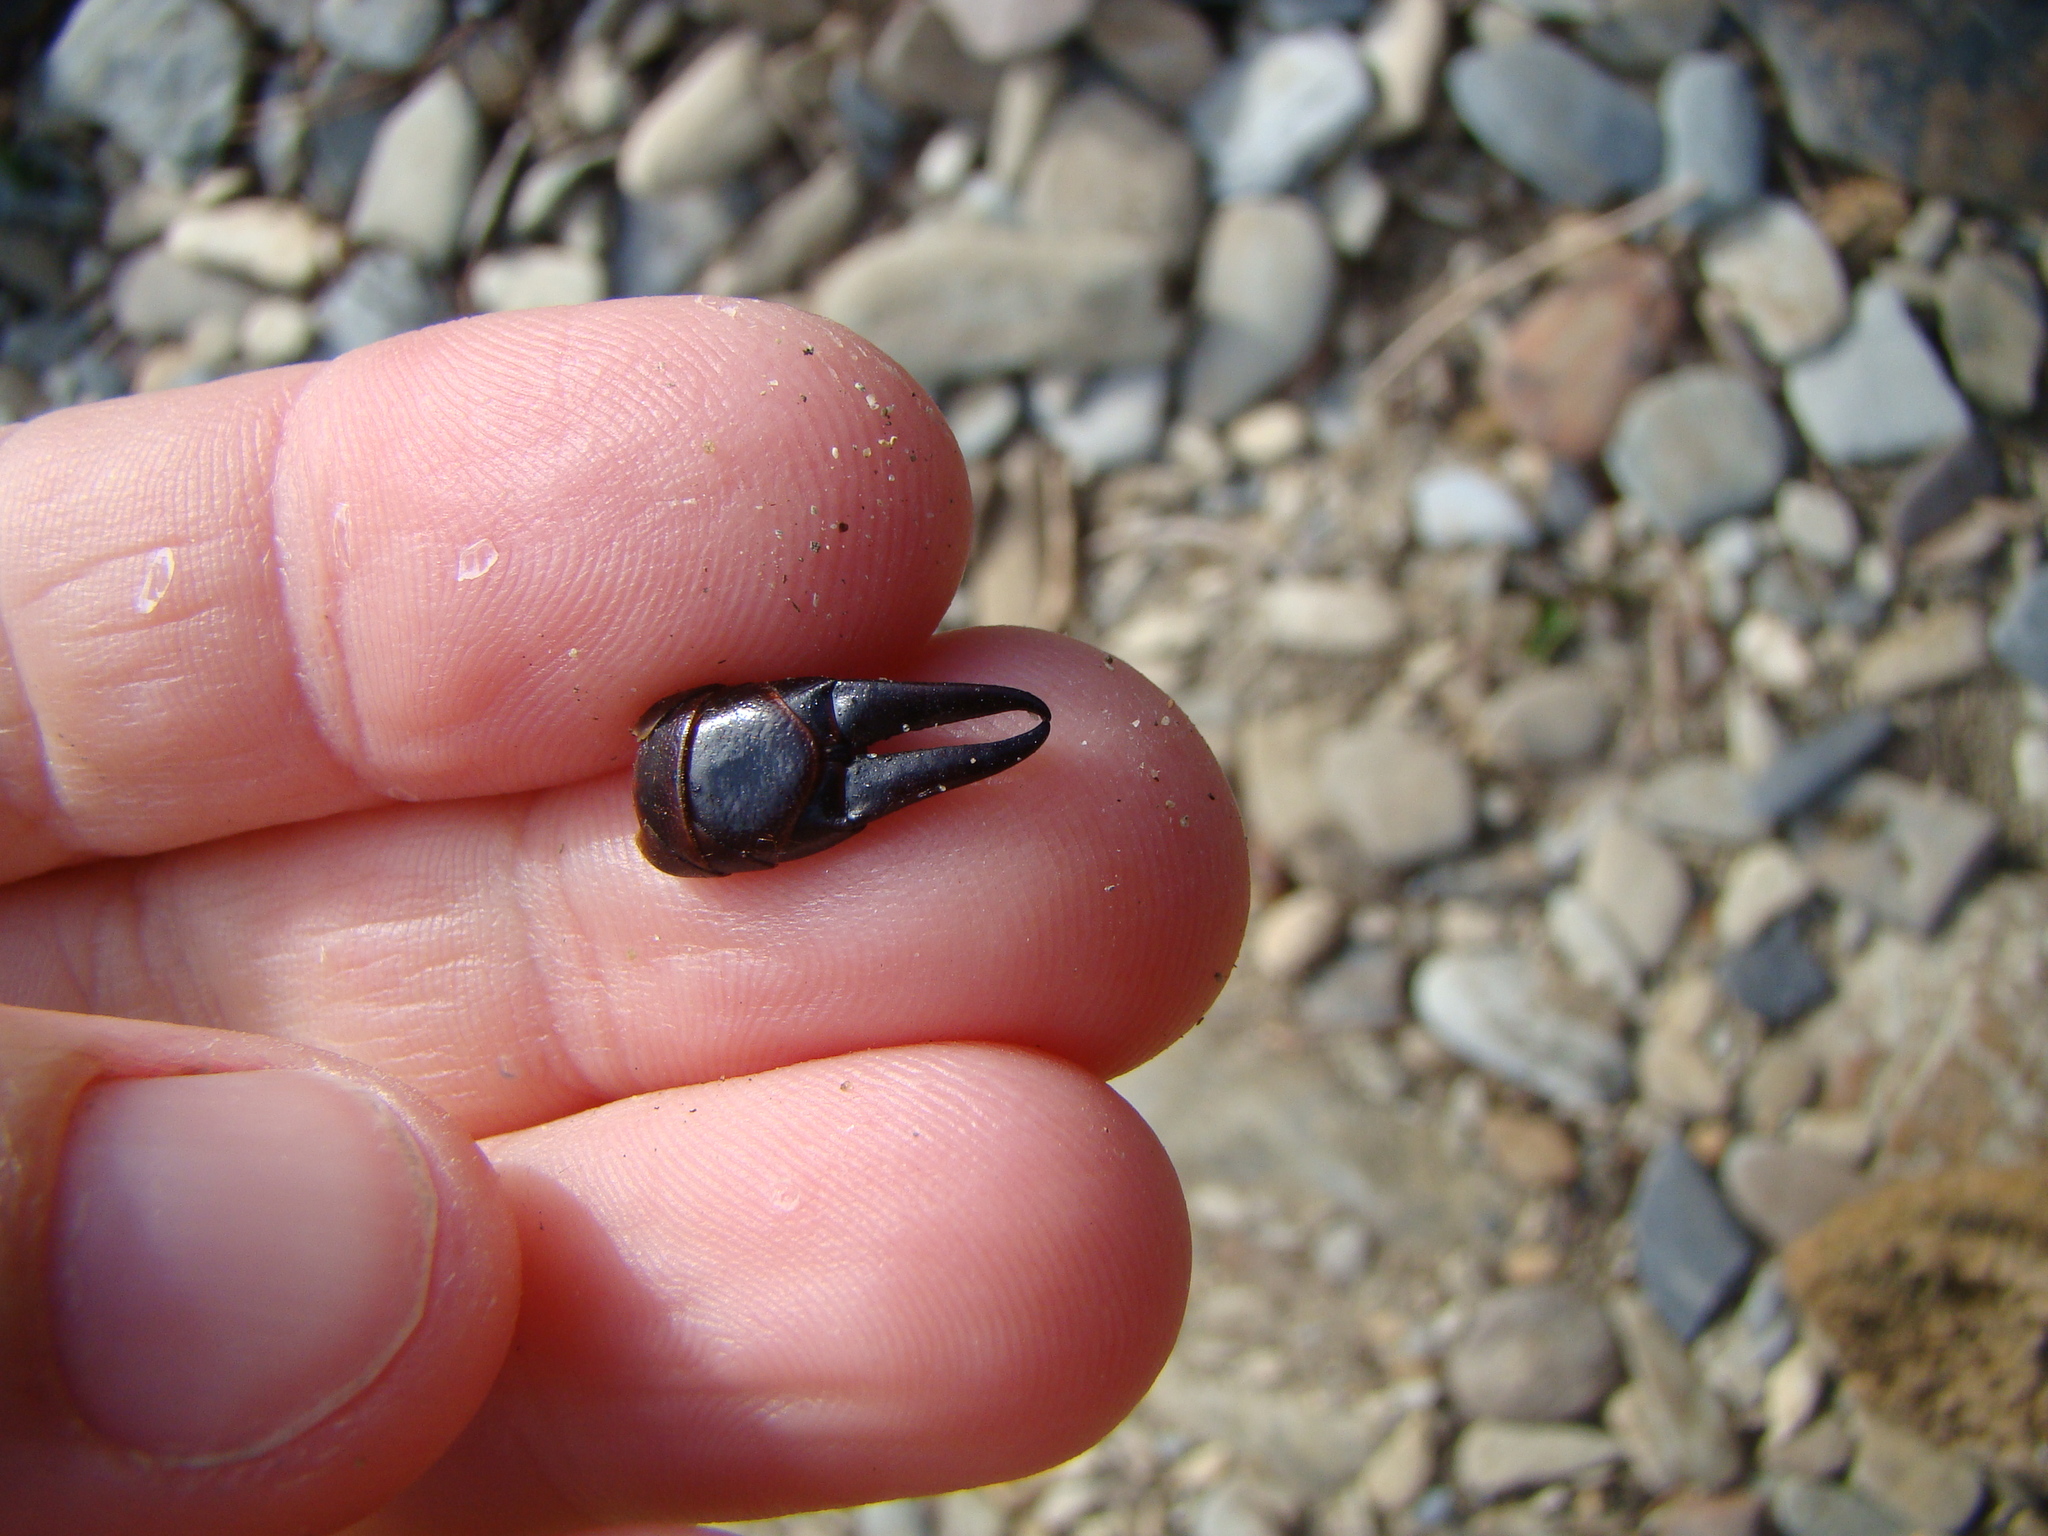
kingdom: Animalia
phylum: Arthropoda
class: Insecta
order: Dermaptera
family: Anisolabididae
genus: Anisolabis
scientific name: Anisolabis littorea
